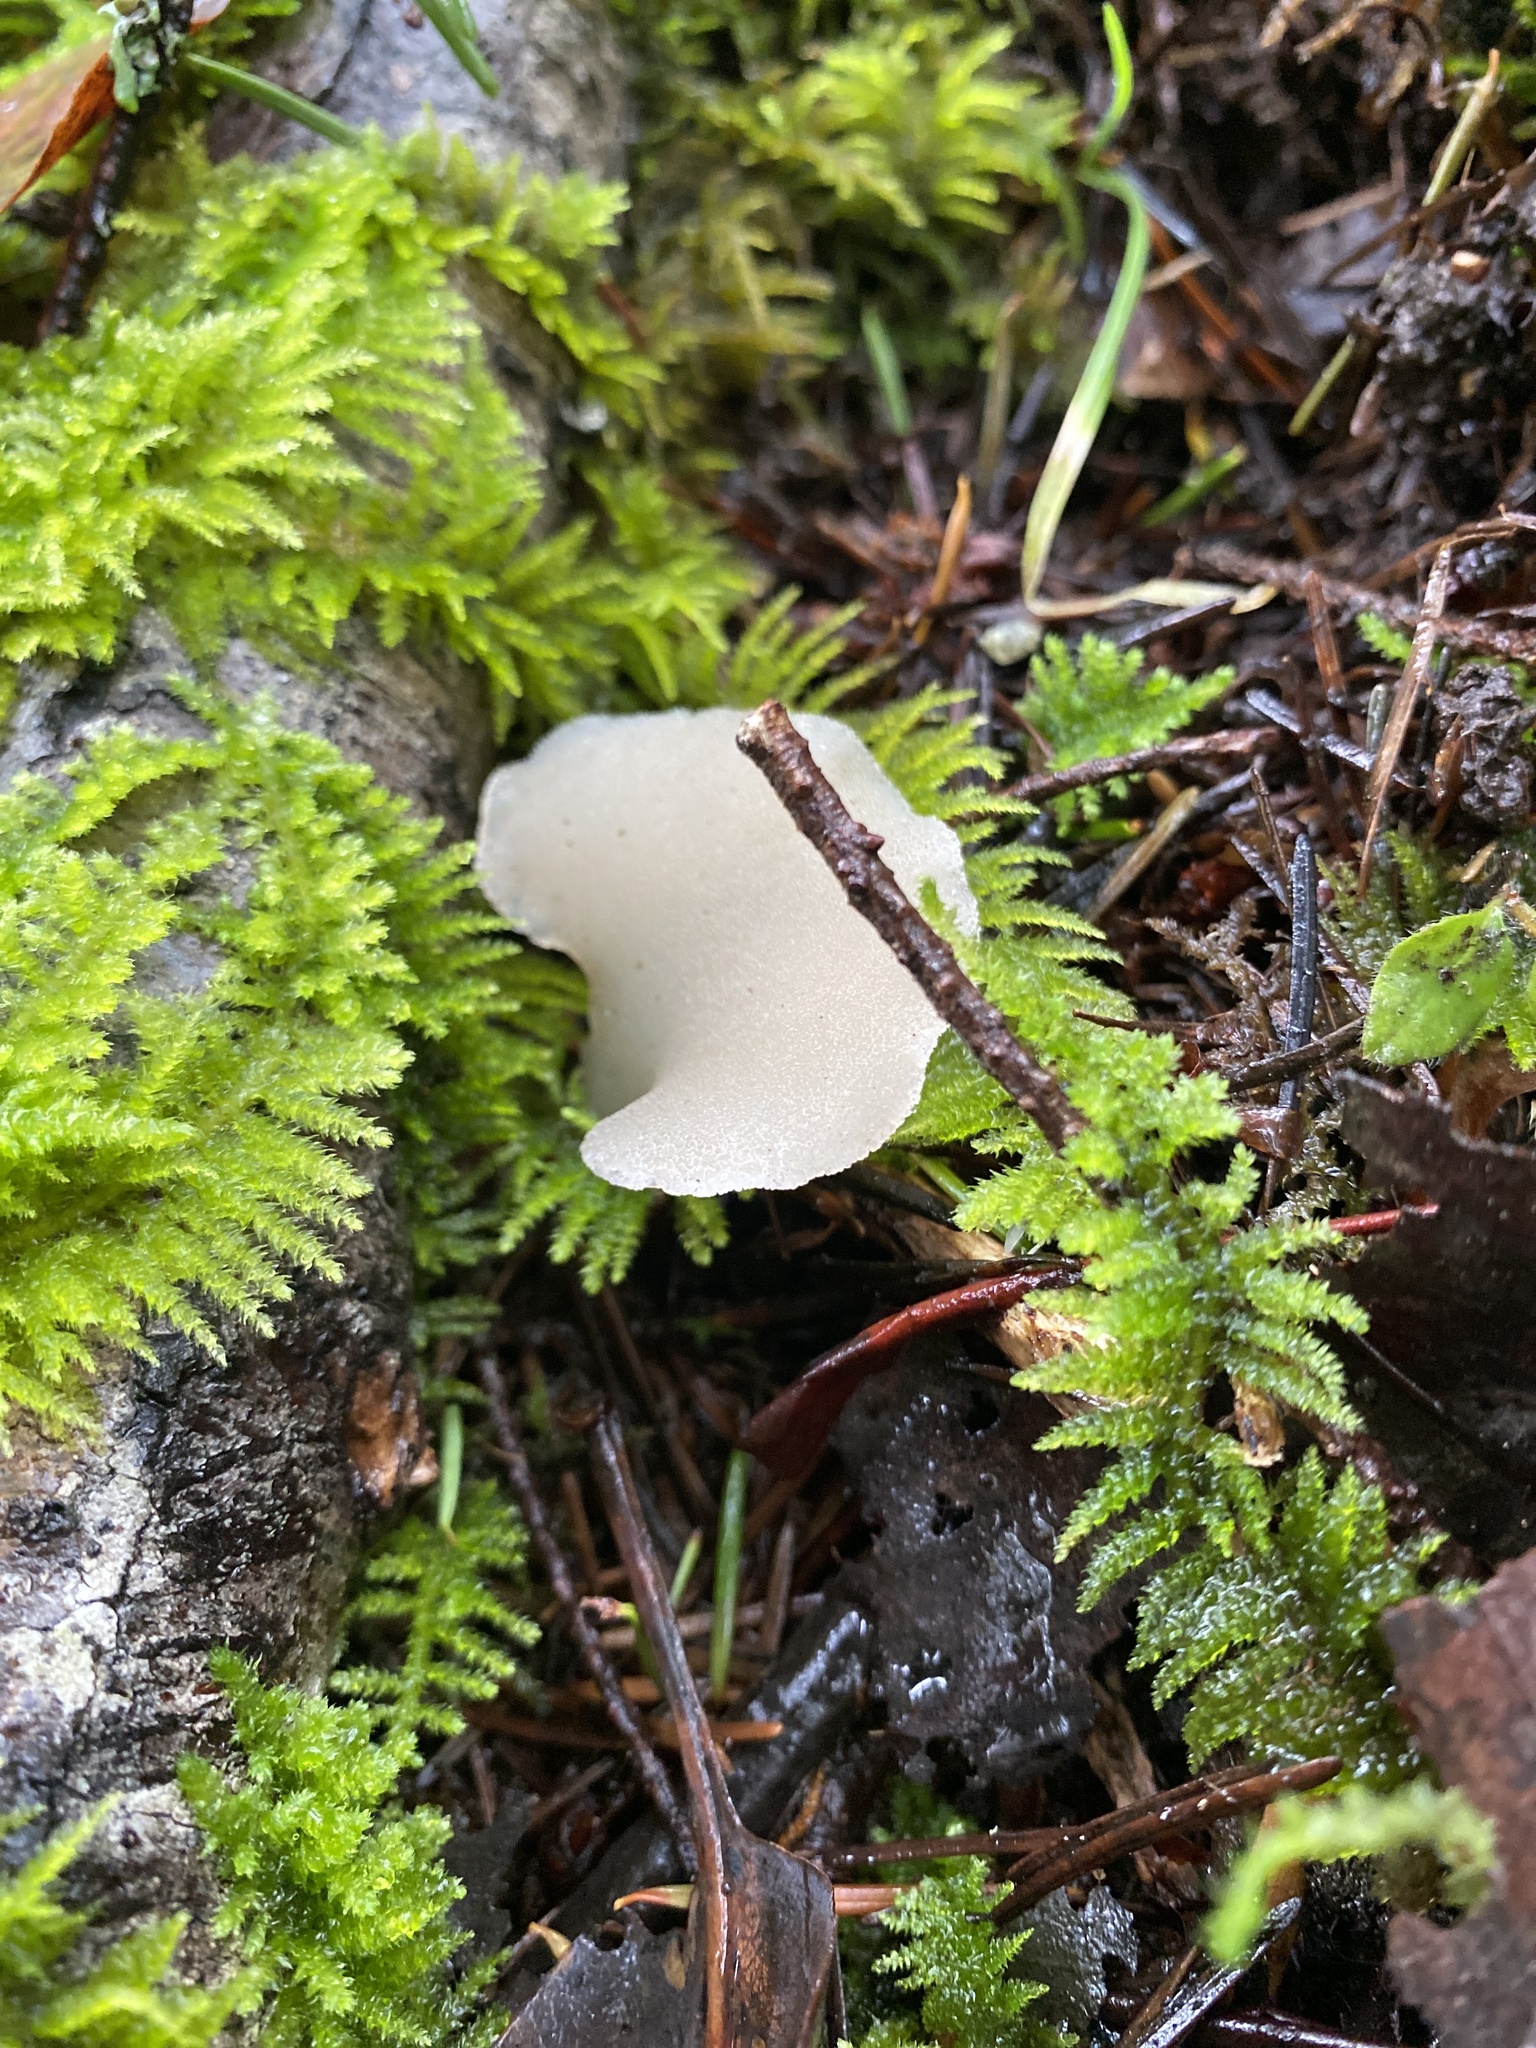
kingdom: Fungi
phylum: Basidiomycota
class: Agaricomycetes
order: Auriculariales
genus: Pseudohydnum
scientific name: Pseudohydnum gelatinosum
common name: Jelly tongue
